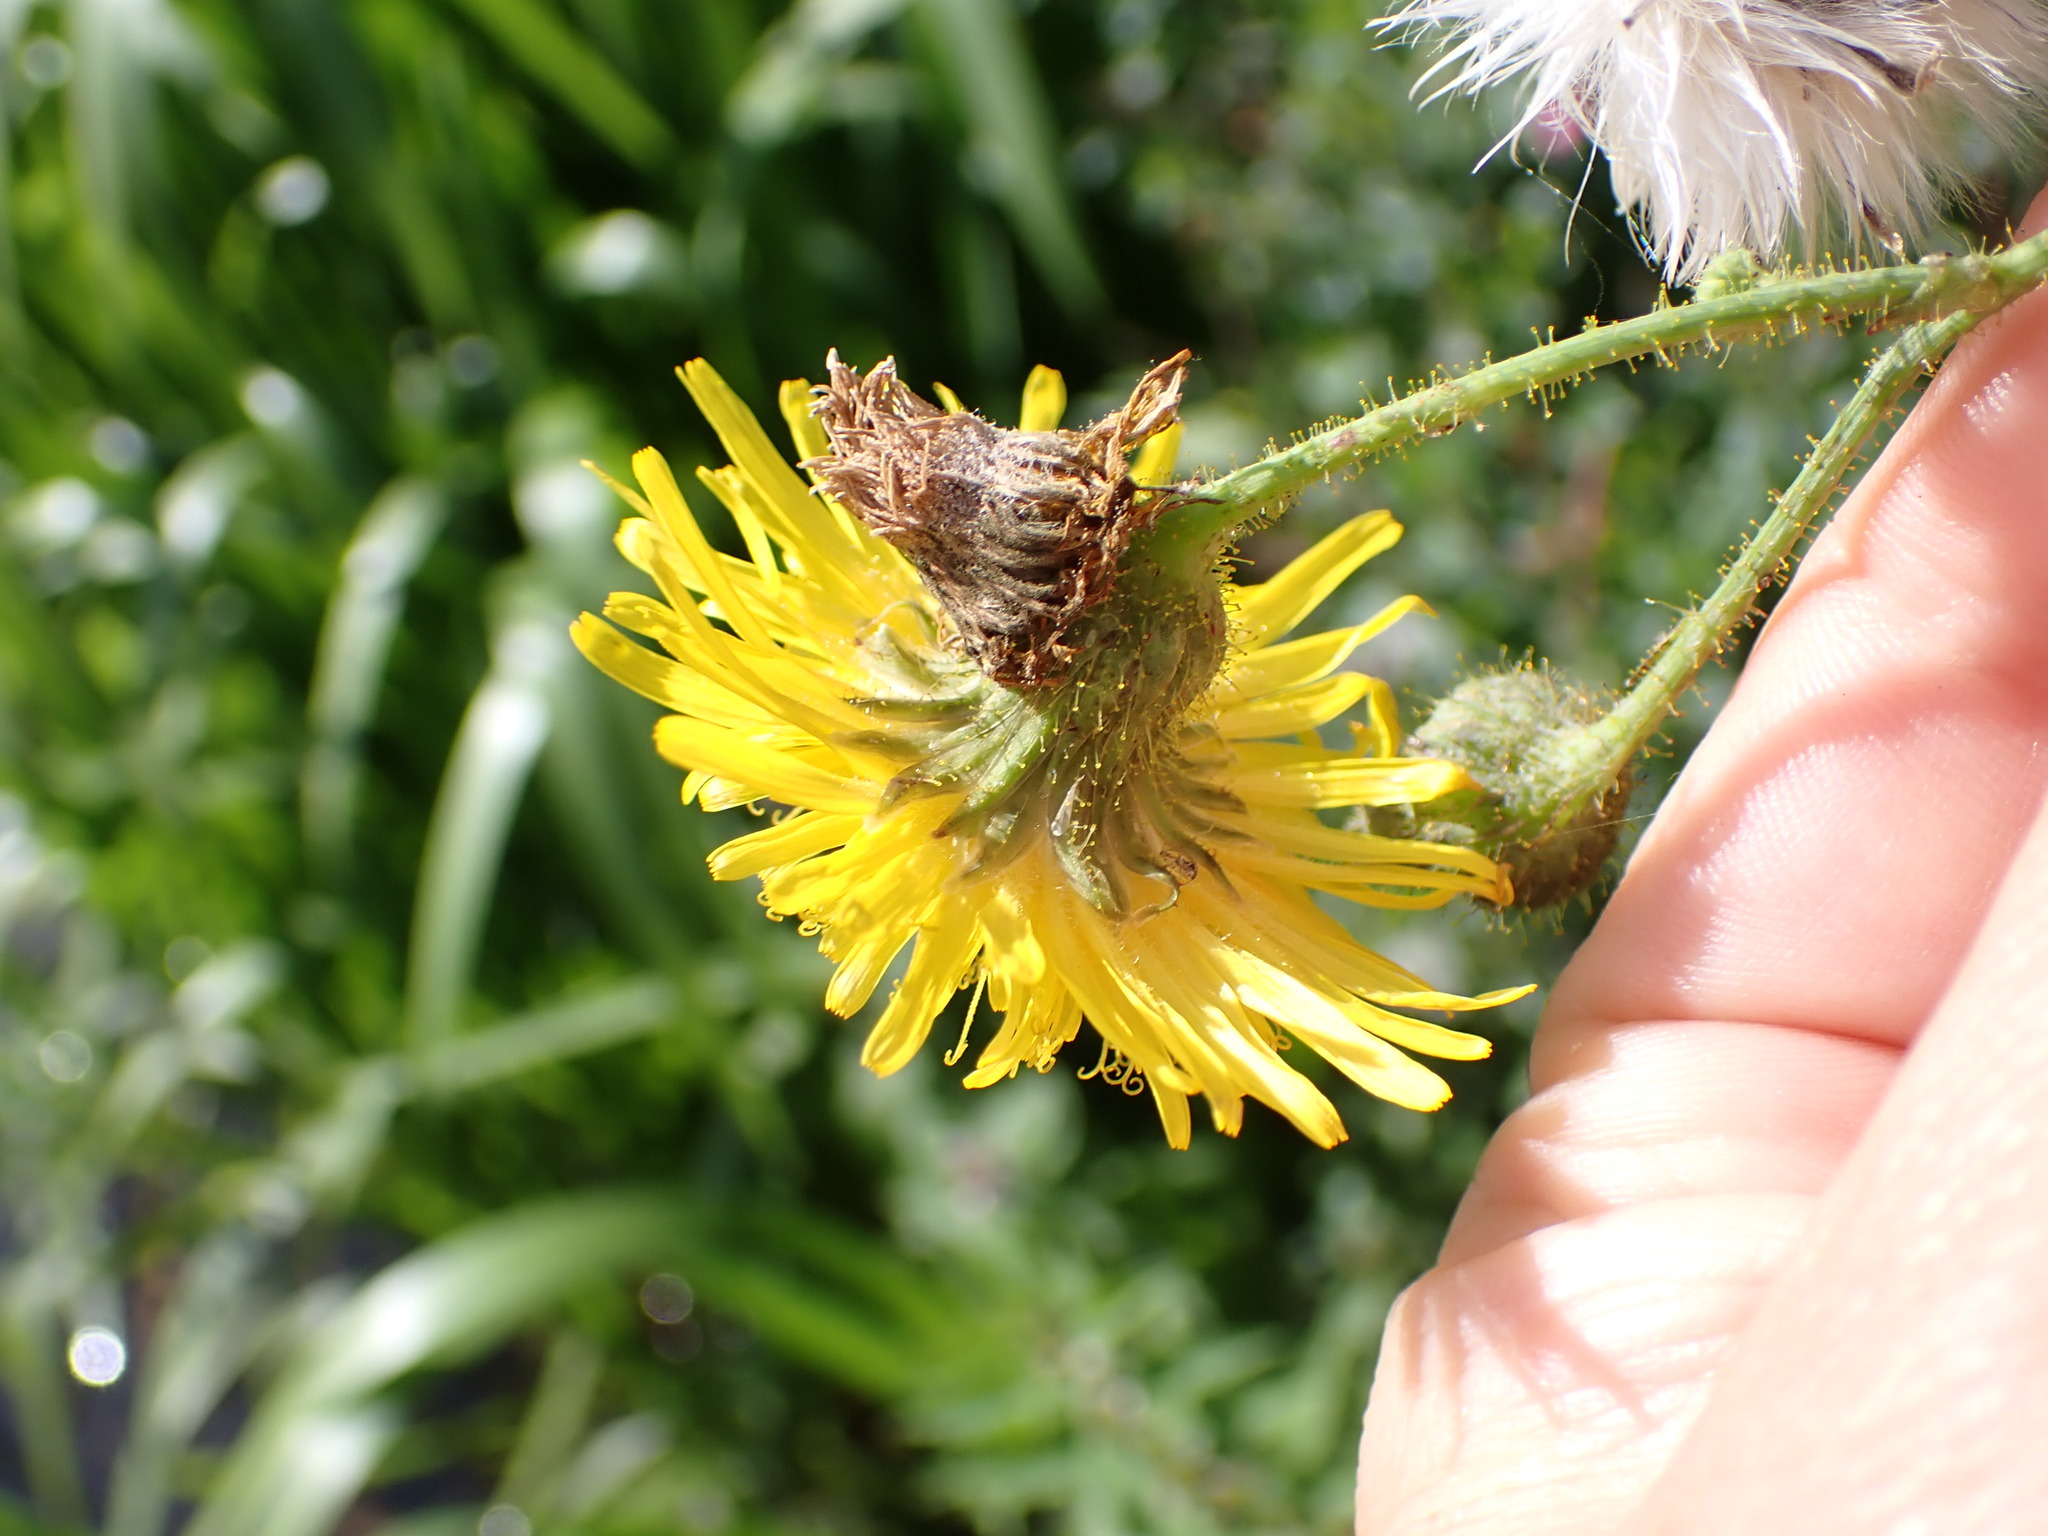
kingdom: Plantae
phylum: Tracheophyta
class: Magnoliopsida
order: Asterales
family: Asteraceae
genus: Sonchus
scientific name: Sonchus arvensis
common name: Perennial sow-thistle
